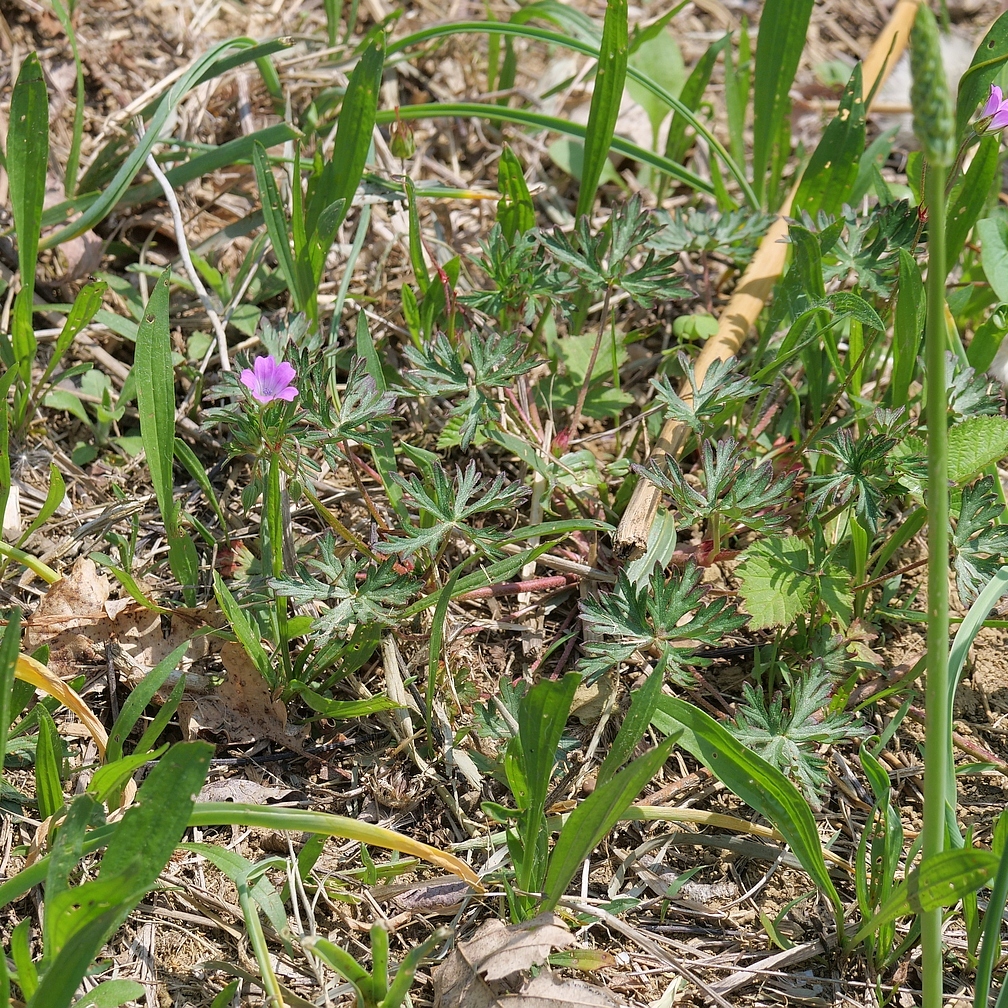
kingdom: Plantae
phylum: Tracheophyta
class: Magnoliopsida
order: Geraniales
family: Geraniaceae
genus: Geranium
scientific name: Geranium columbinum
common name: Long-stalked crane's-bill
